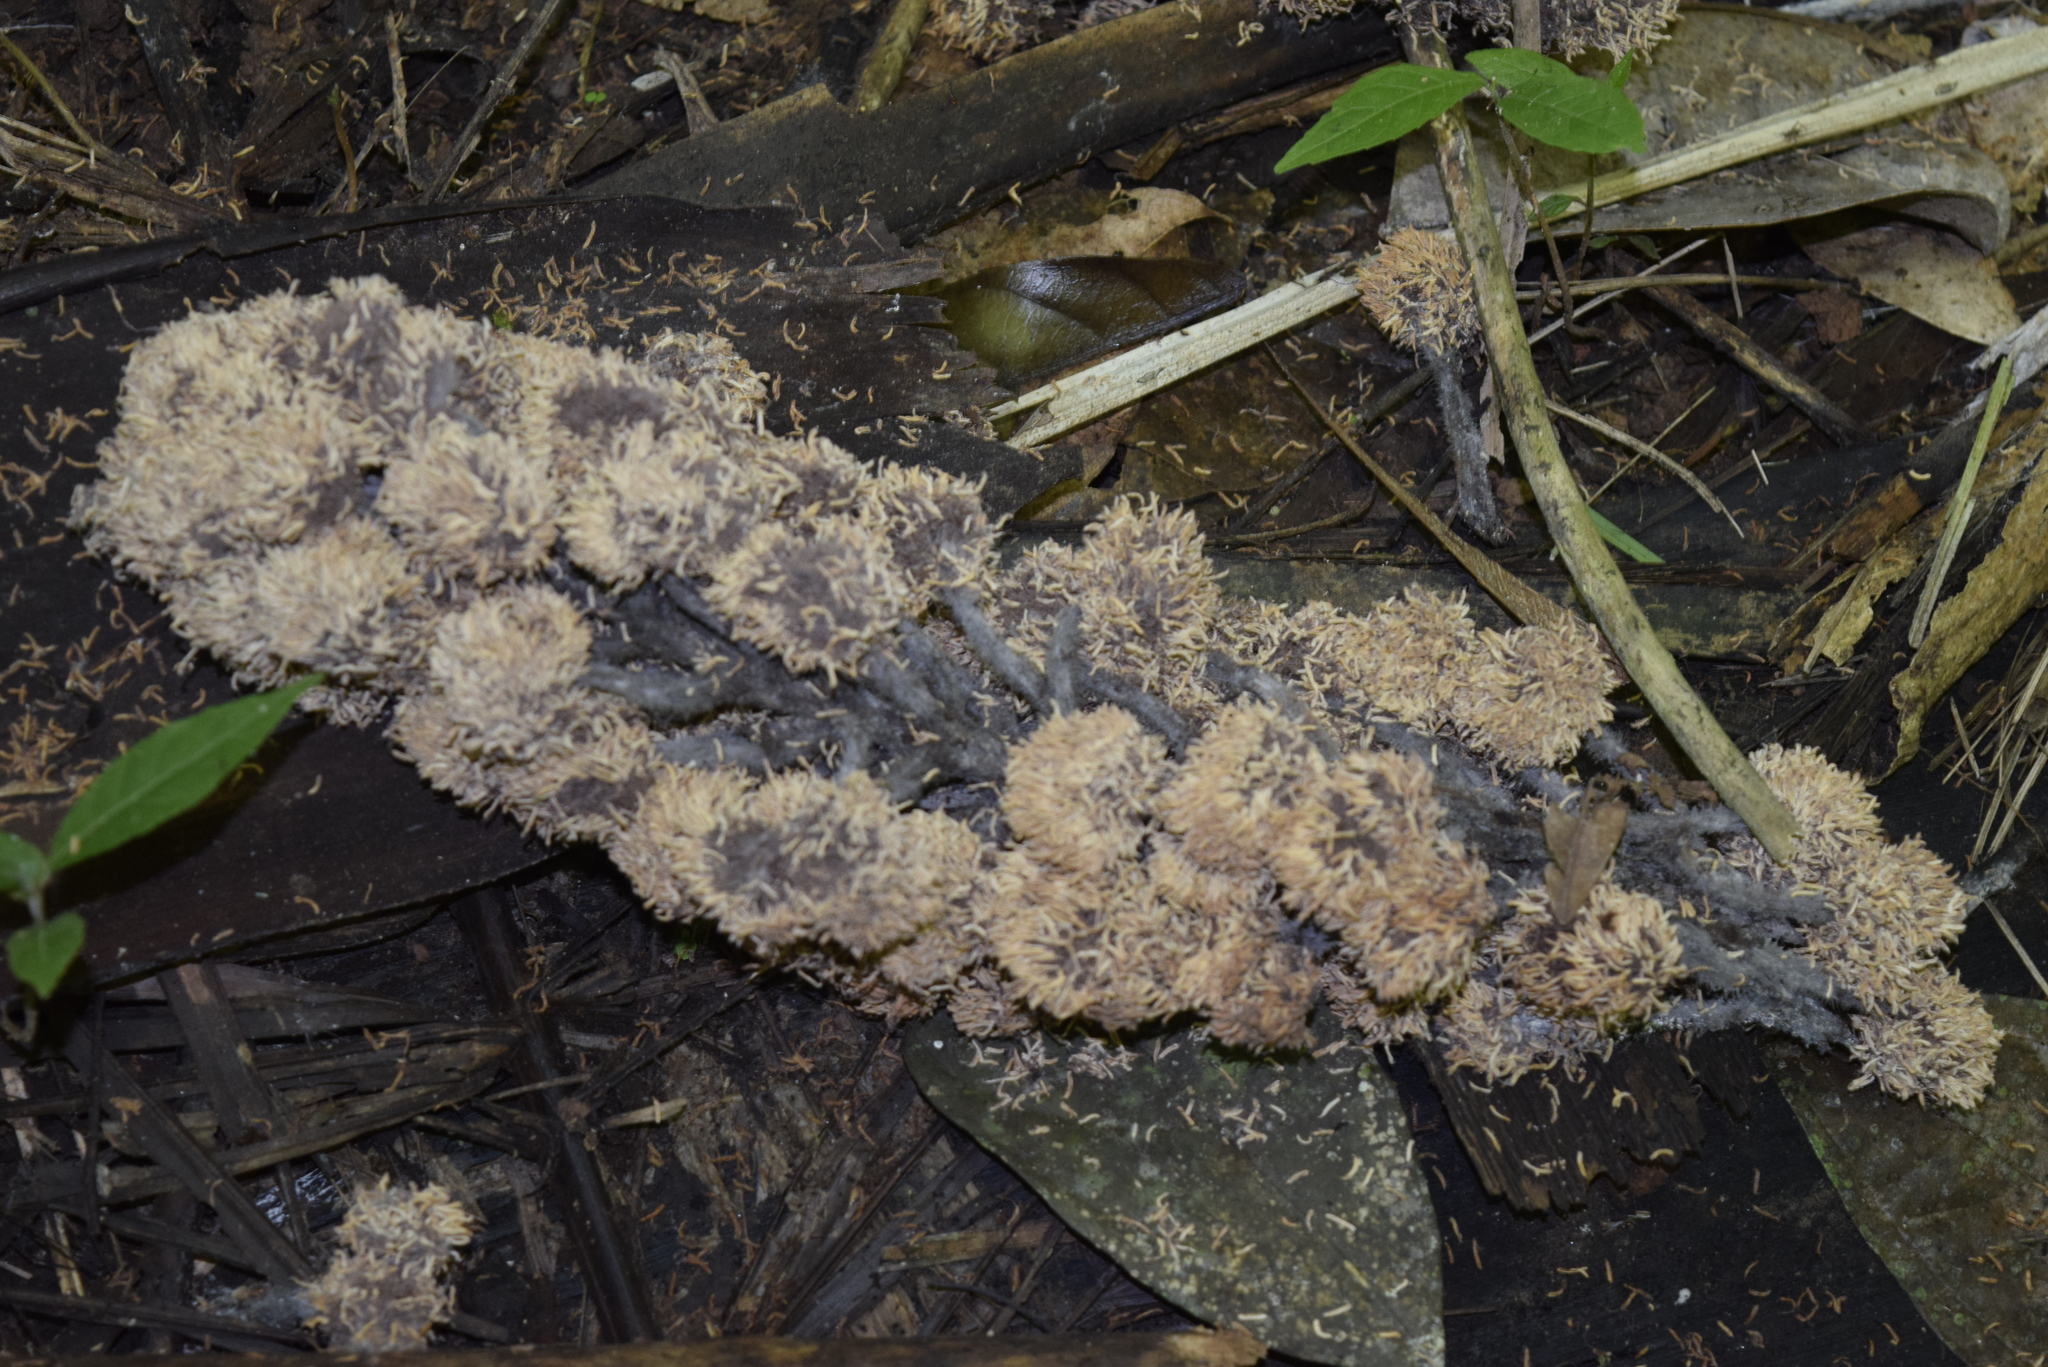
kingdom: Plantae
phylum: Tracheophyta
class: Liliopsida
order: Arecales
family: Arecaceae
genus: Phytelephas
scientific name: Phytelephas aequatorialis
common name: Ivory palm
